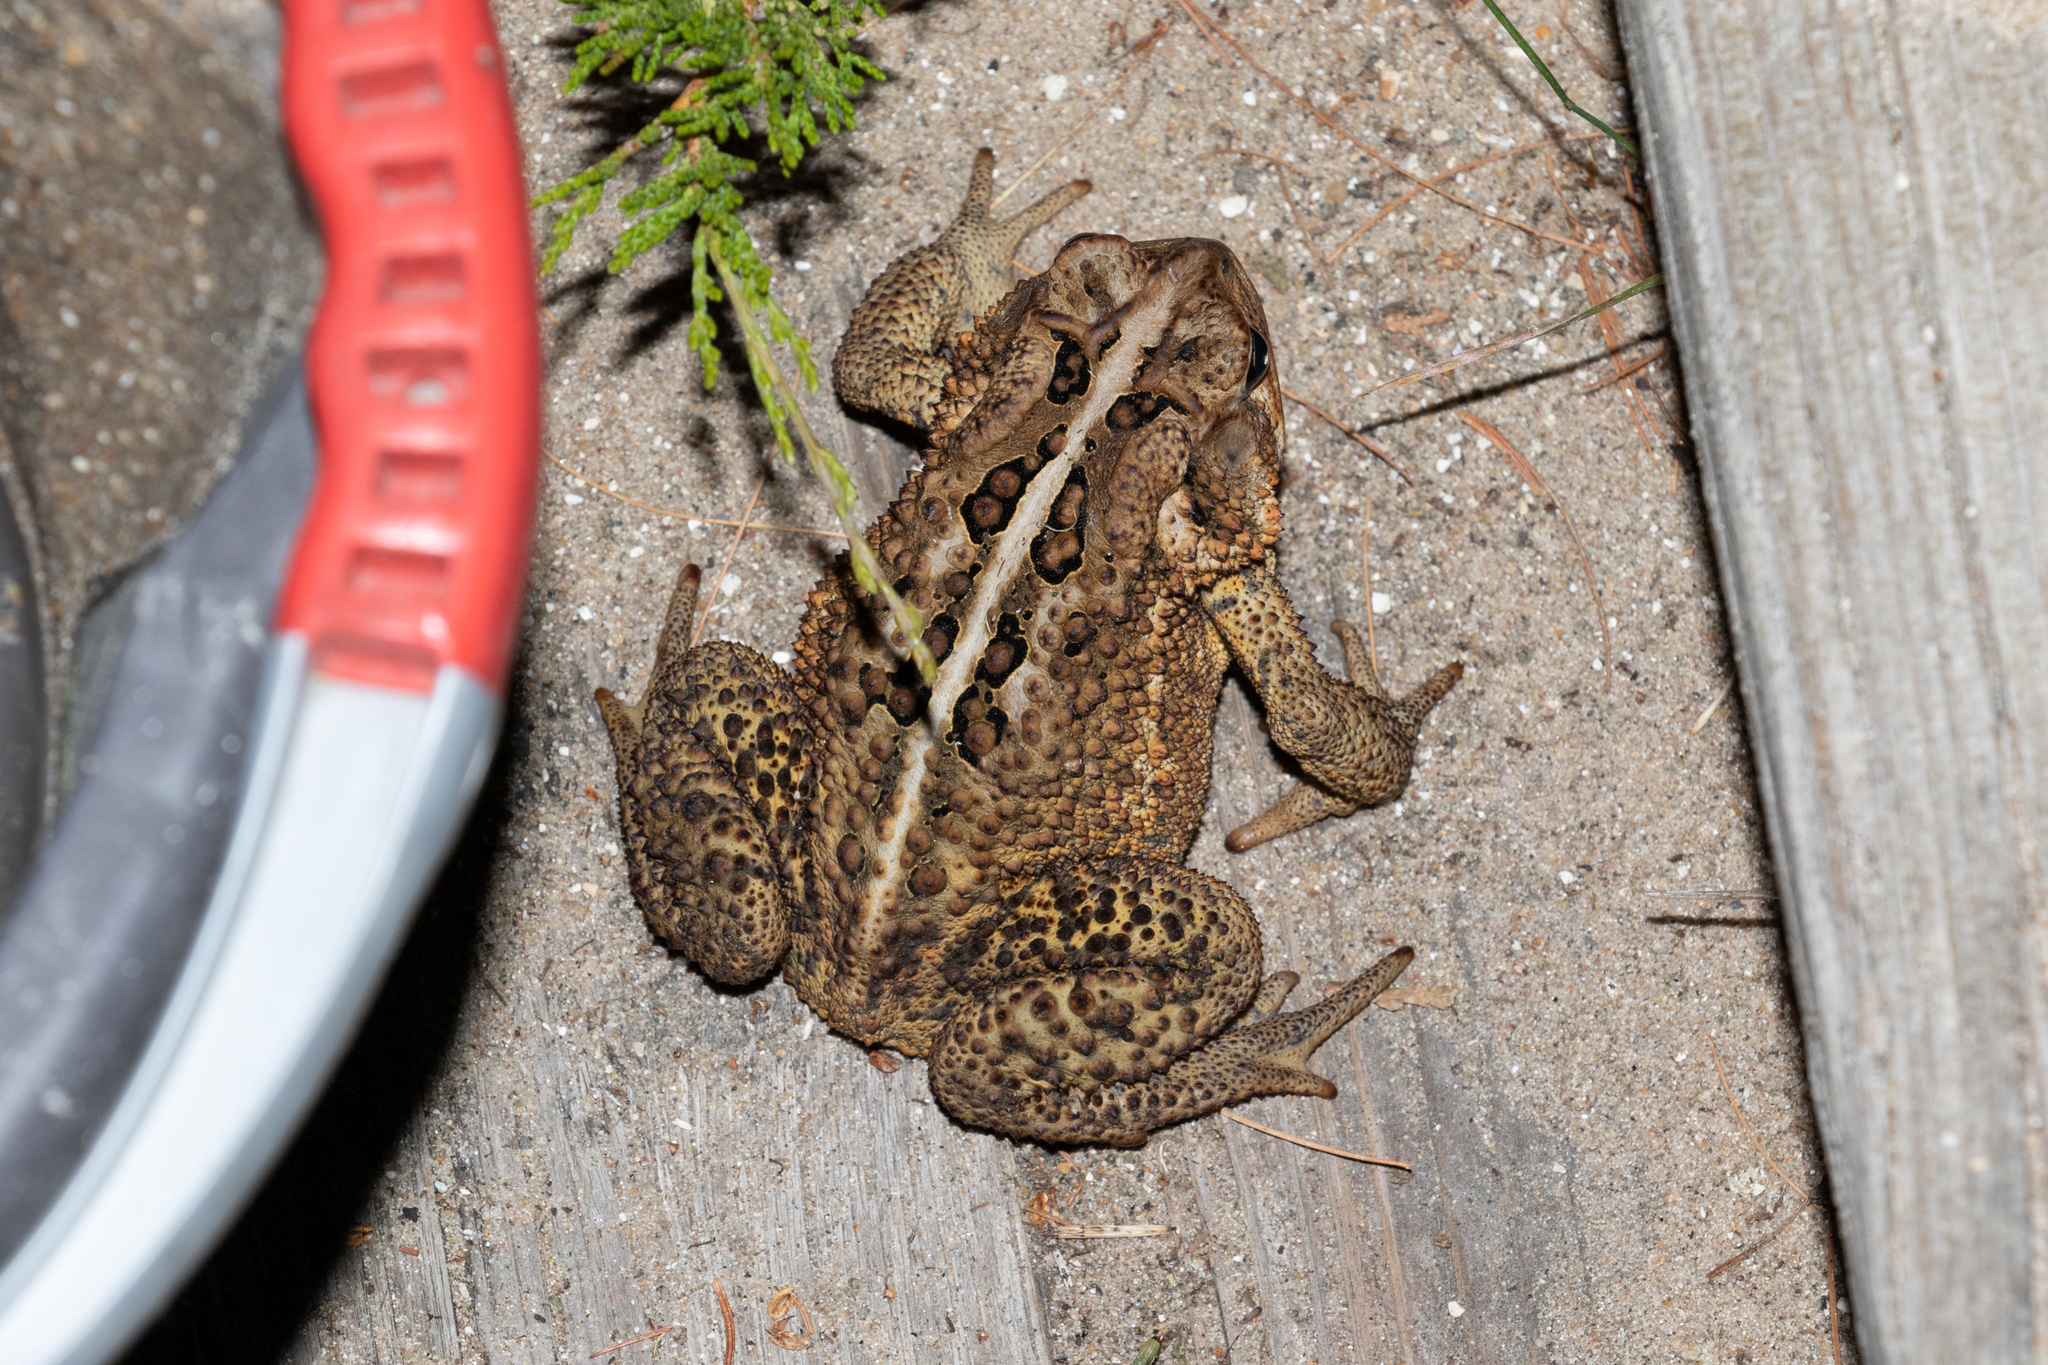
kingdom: Animalia
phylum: Chordata
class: Amphibia
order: Anura
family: Bufonidae
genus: Anaxyrus
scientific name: Anaxyrus americanus
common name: American toad
